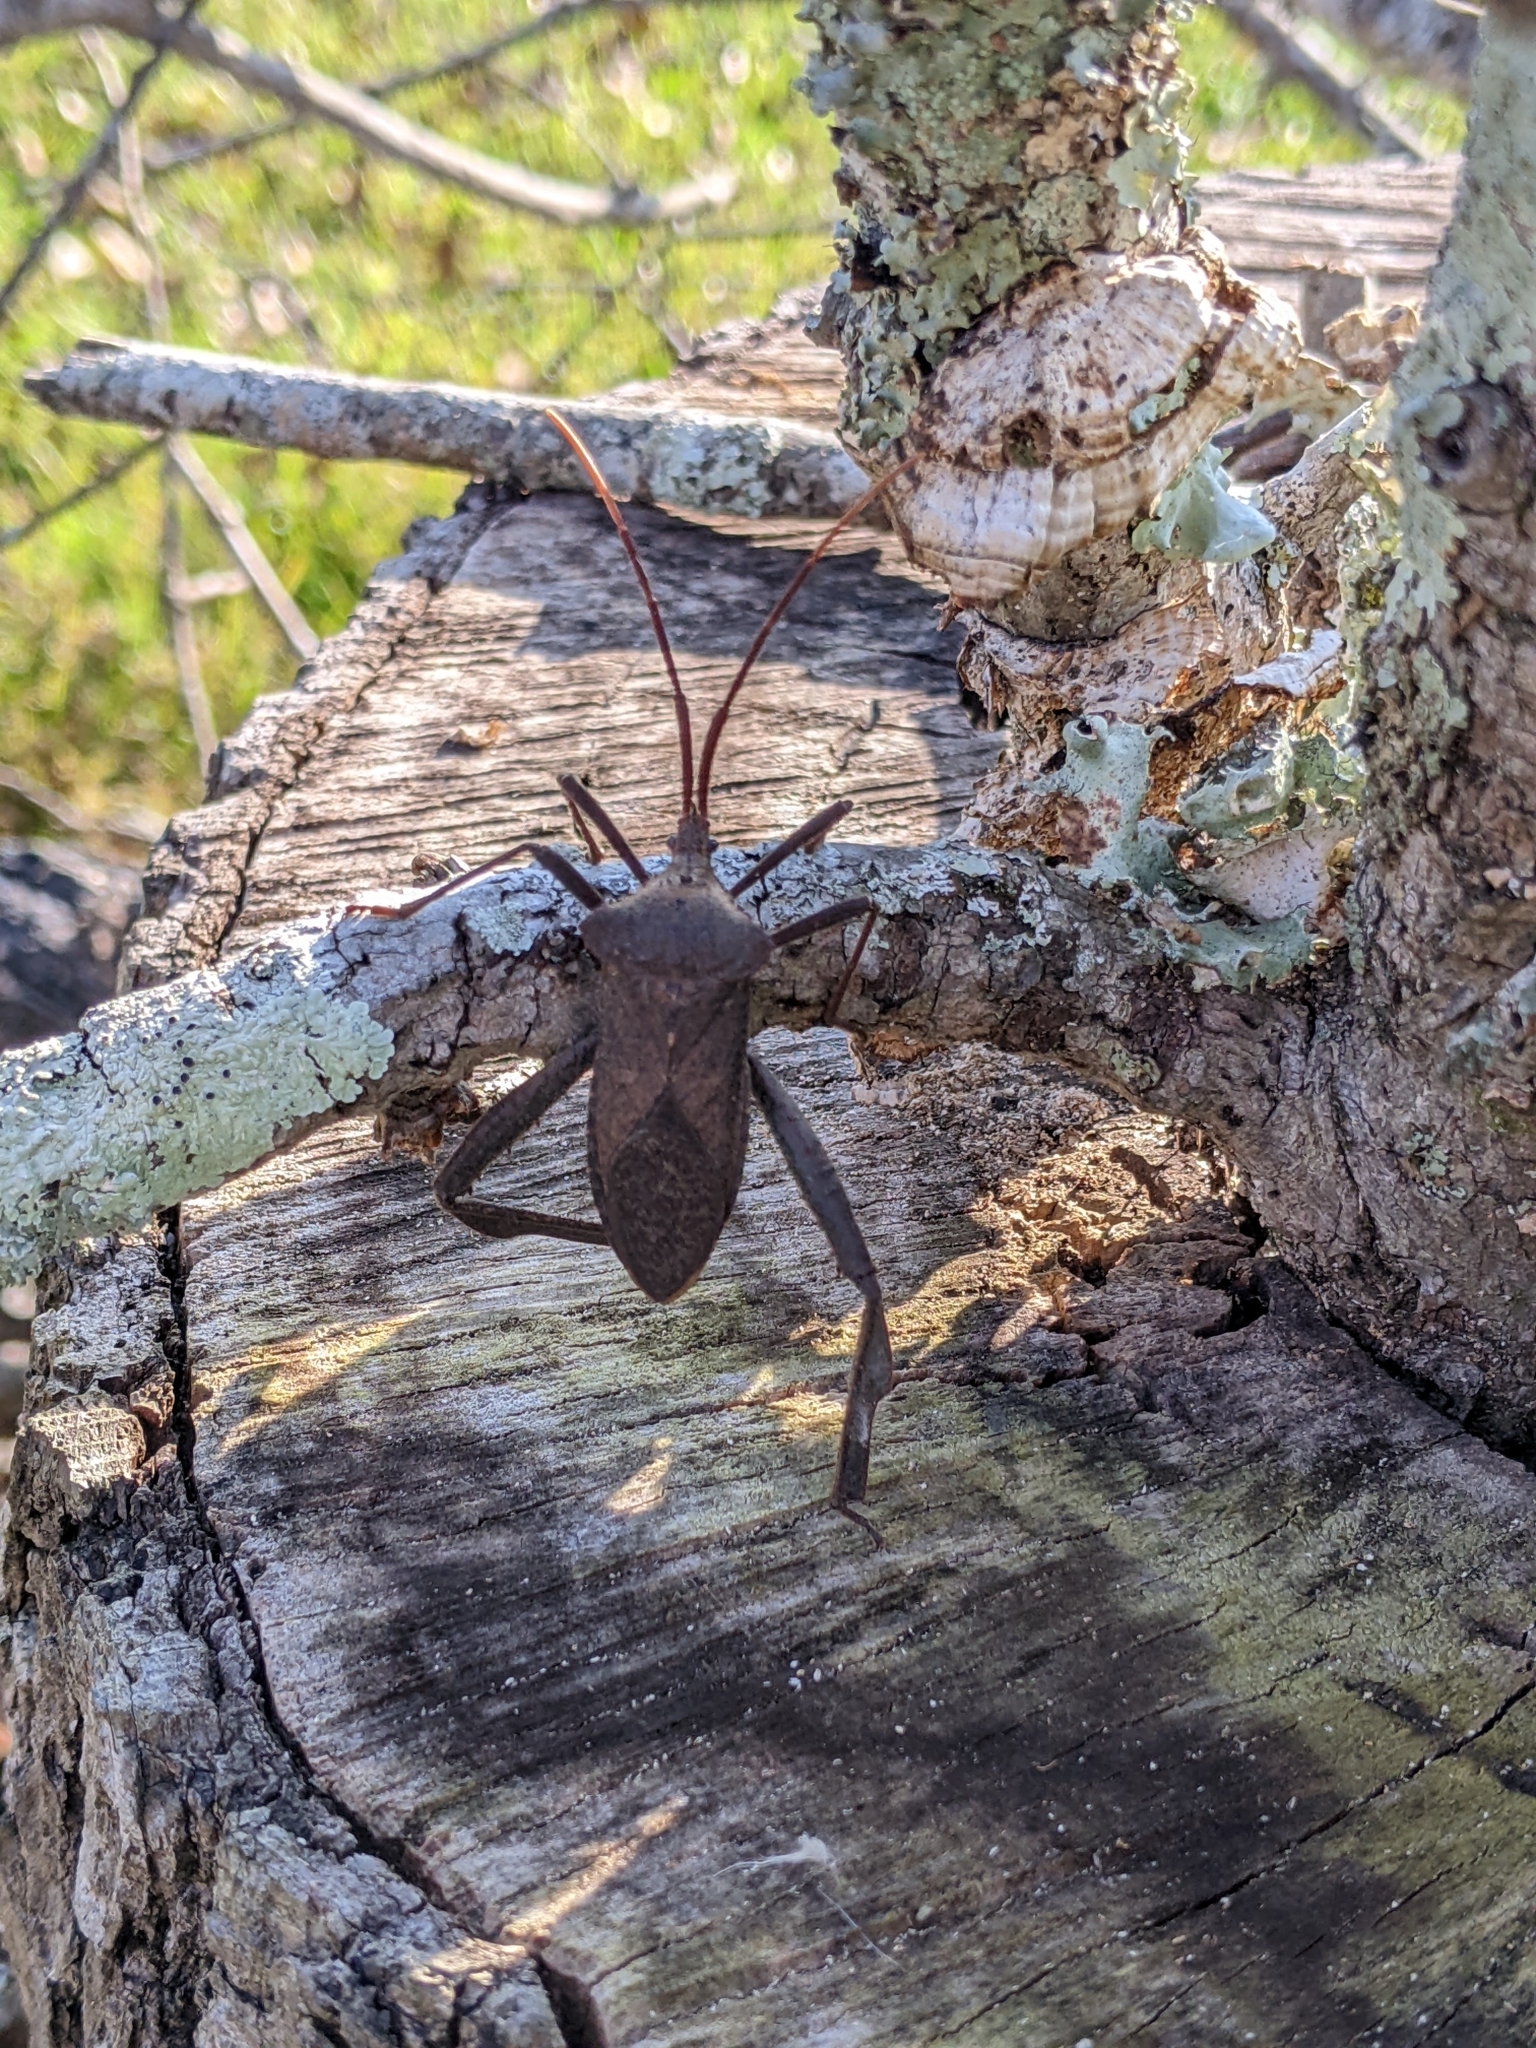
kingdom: Animalia
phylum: Arthropoda
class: Insecta
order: Hemiptera
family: Coreidae
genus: Acanthocephala
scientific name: Acanthocephala declivis
